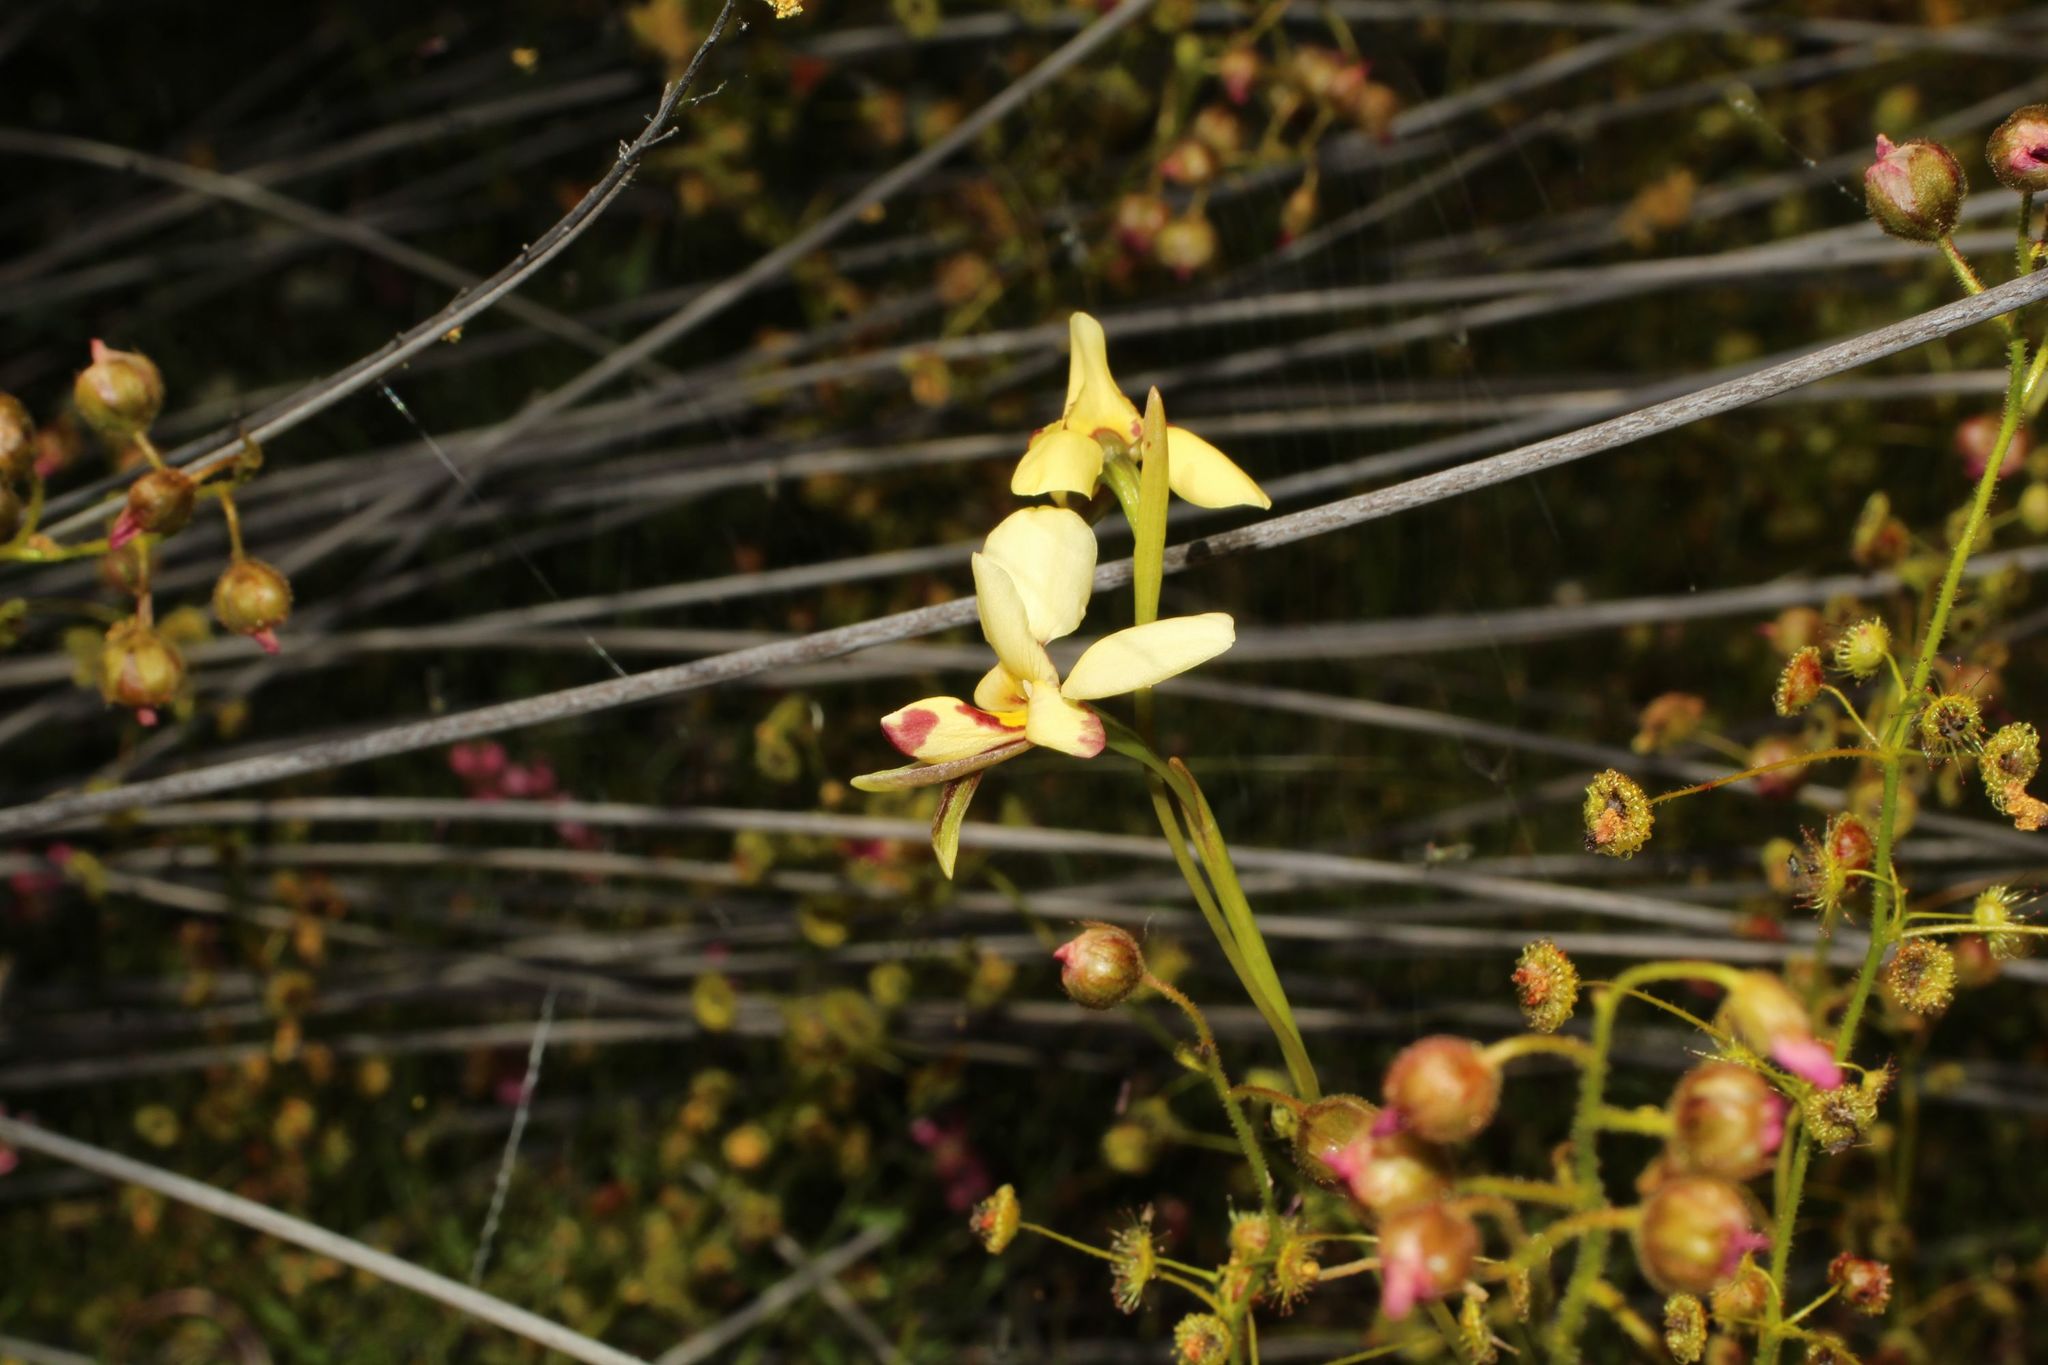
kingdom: Plantae
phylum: Tracheophyta
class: Liliopsida
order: Asparagales
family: Orchidaceae
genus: Diuris
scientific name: Diuris picta
